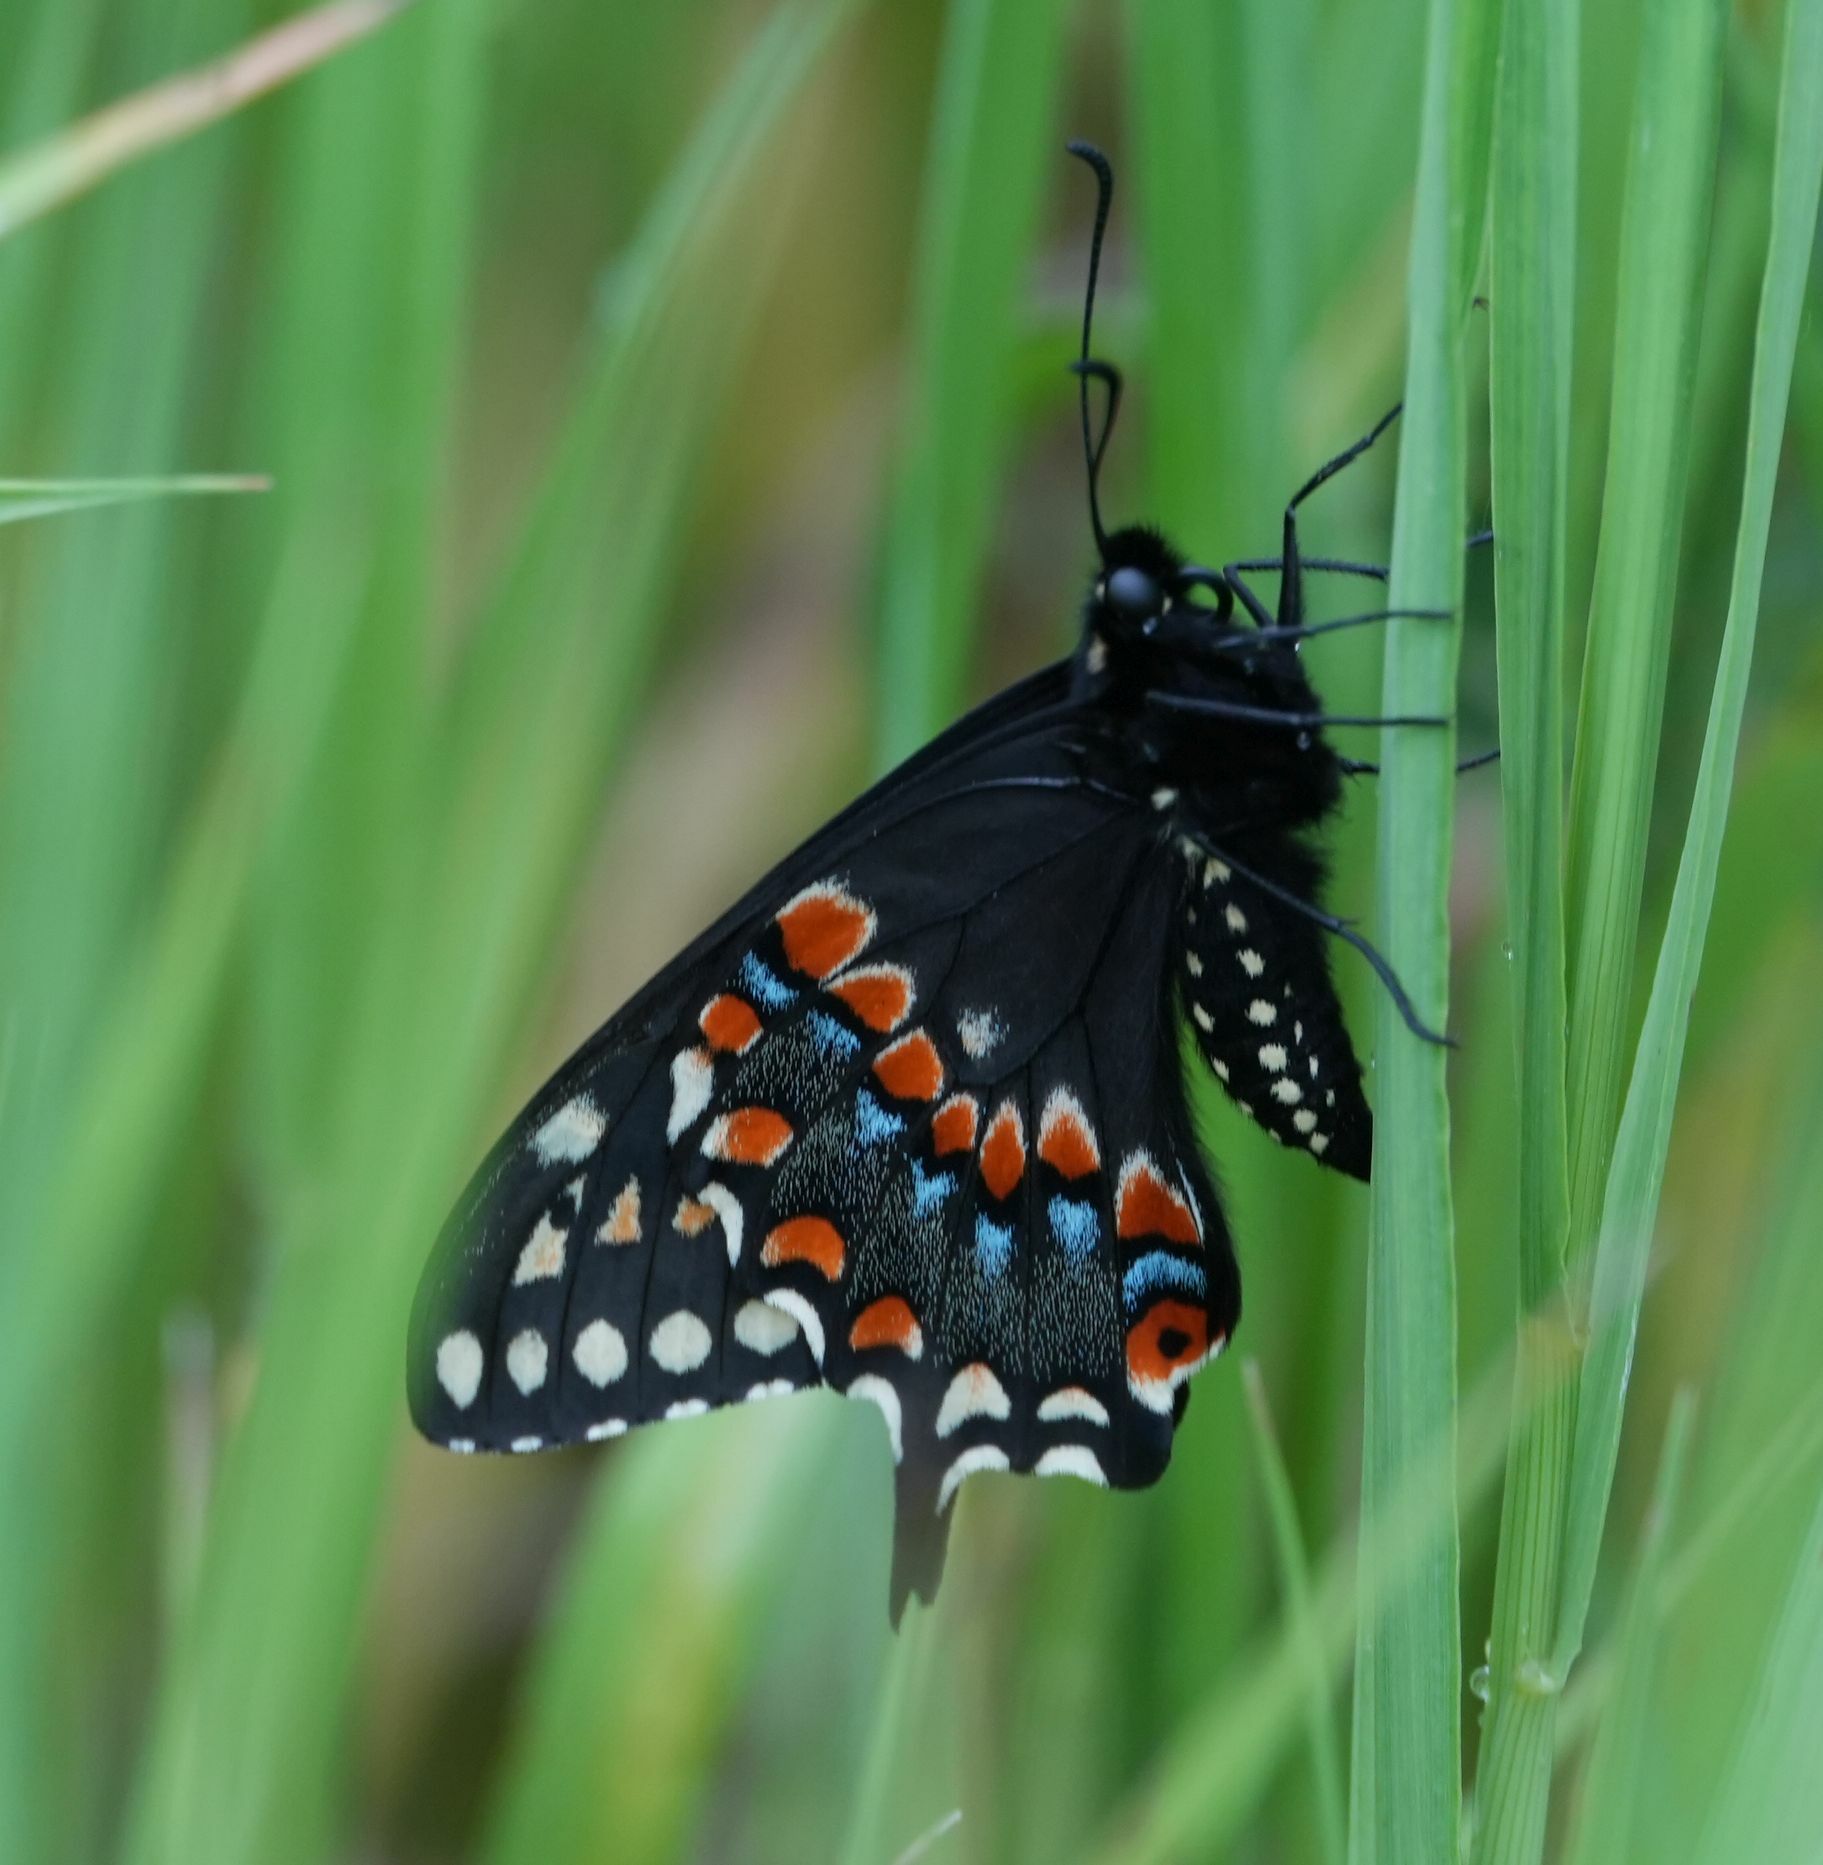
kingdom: Animalia
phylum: Arthropoda
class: Insecta
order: Lepidoptera
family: Papilionidae
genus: Papilio
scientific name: Papilio polyxenes
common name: Black swallowtail
